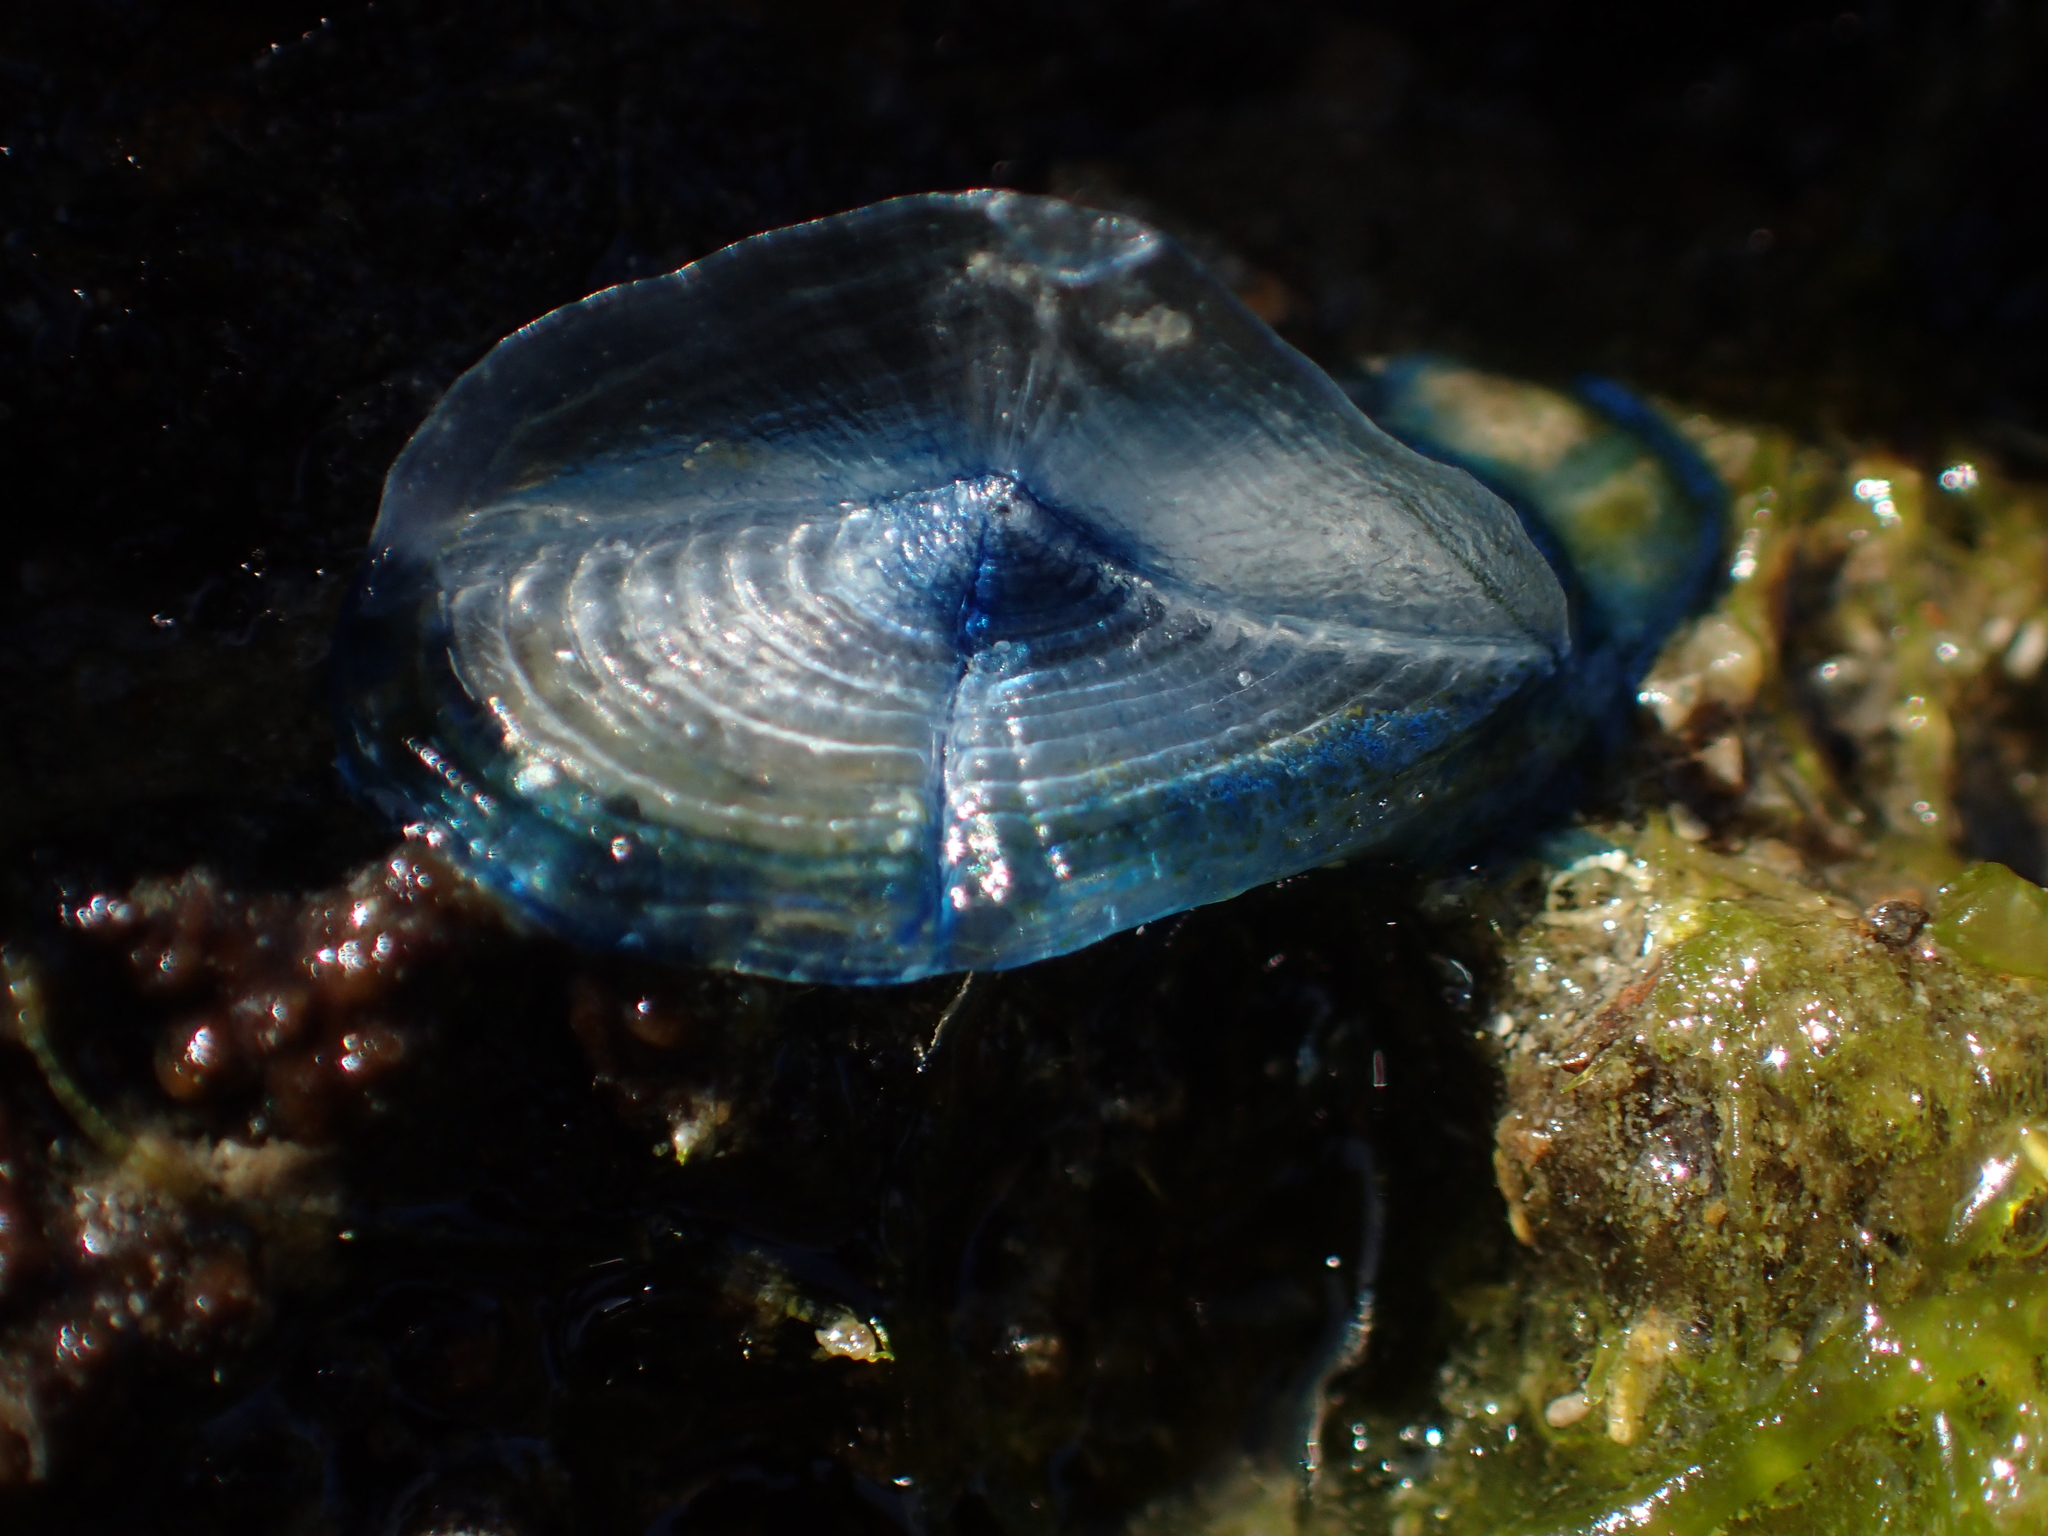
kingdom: Animalia
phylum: Cnidaria
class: Hydrozoa
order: Anthoathecata
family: Porpitidae
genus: Velella
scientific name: Velella velella
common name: By-the-wind-sailor
